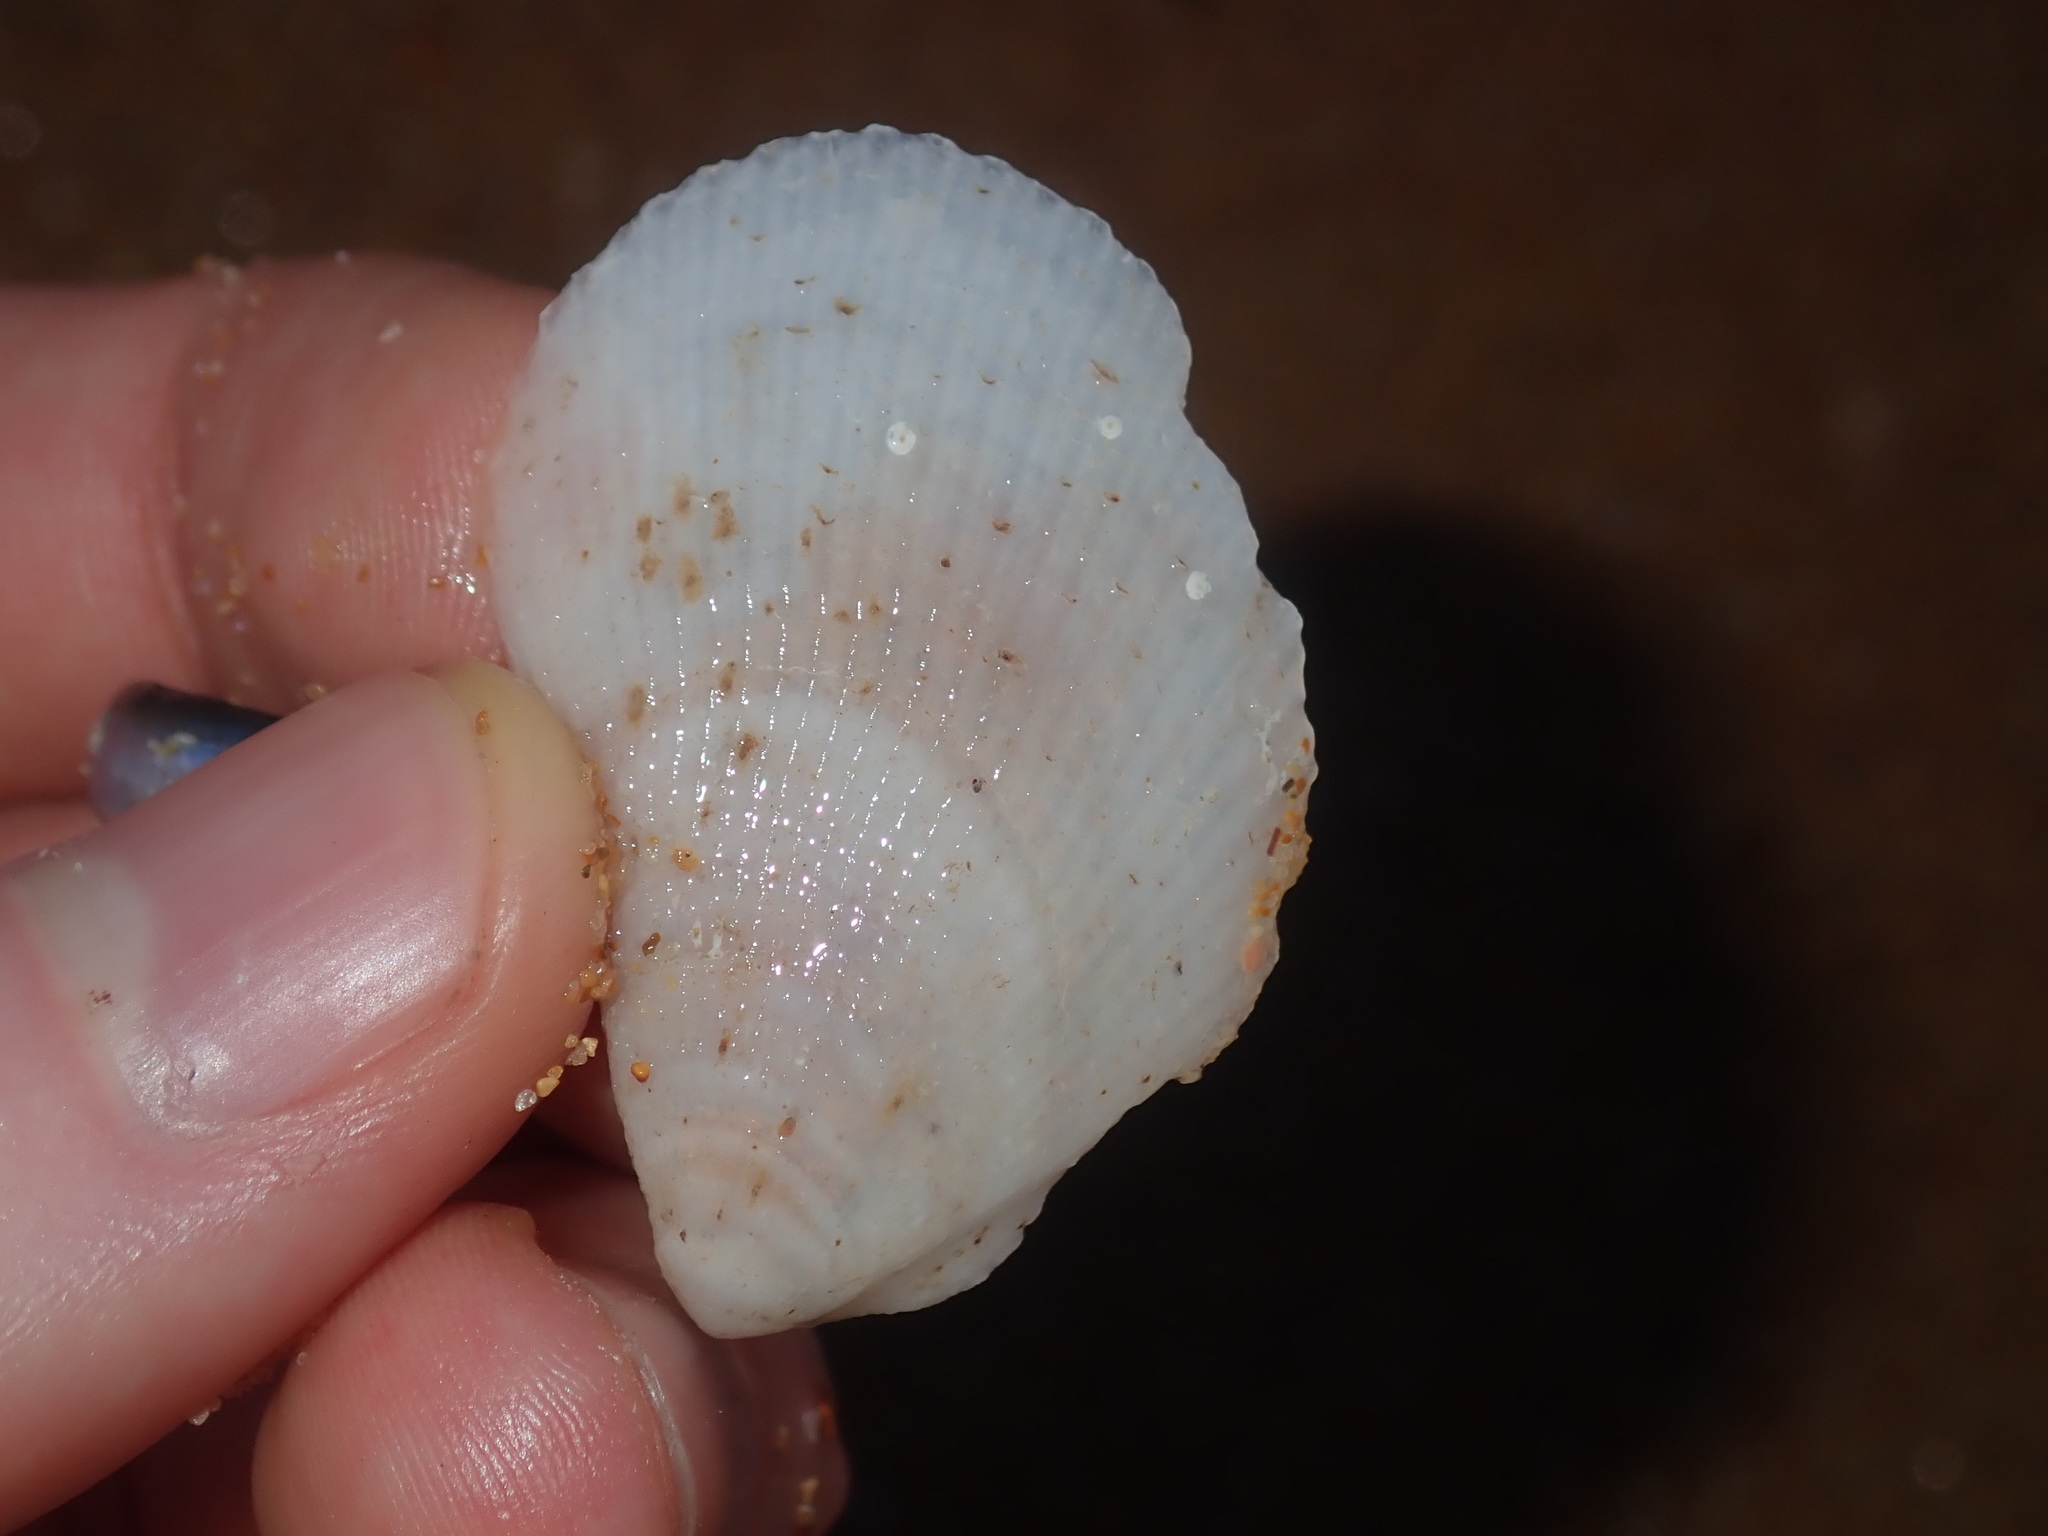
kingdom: Animalia
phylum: Mollusca
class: Bivalvia
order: Limida
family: Limidae
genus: Lima
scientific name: Lima nimbifer
